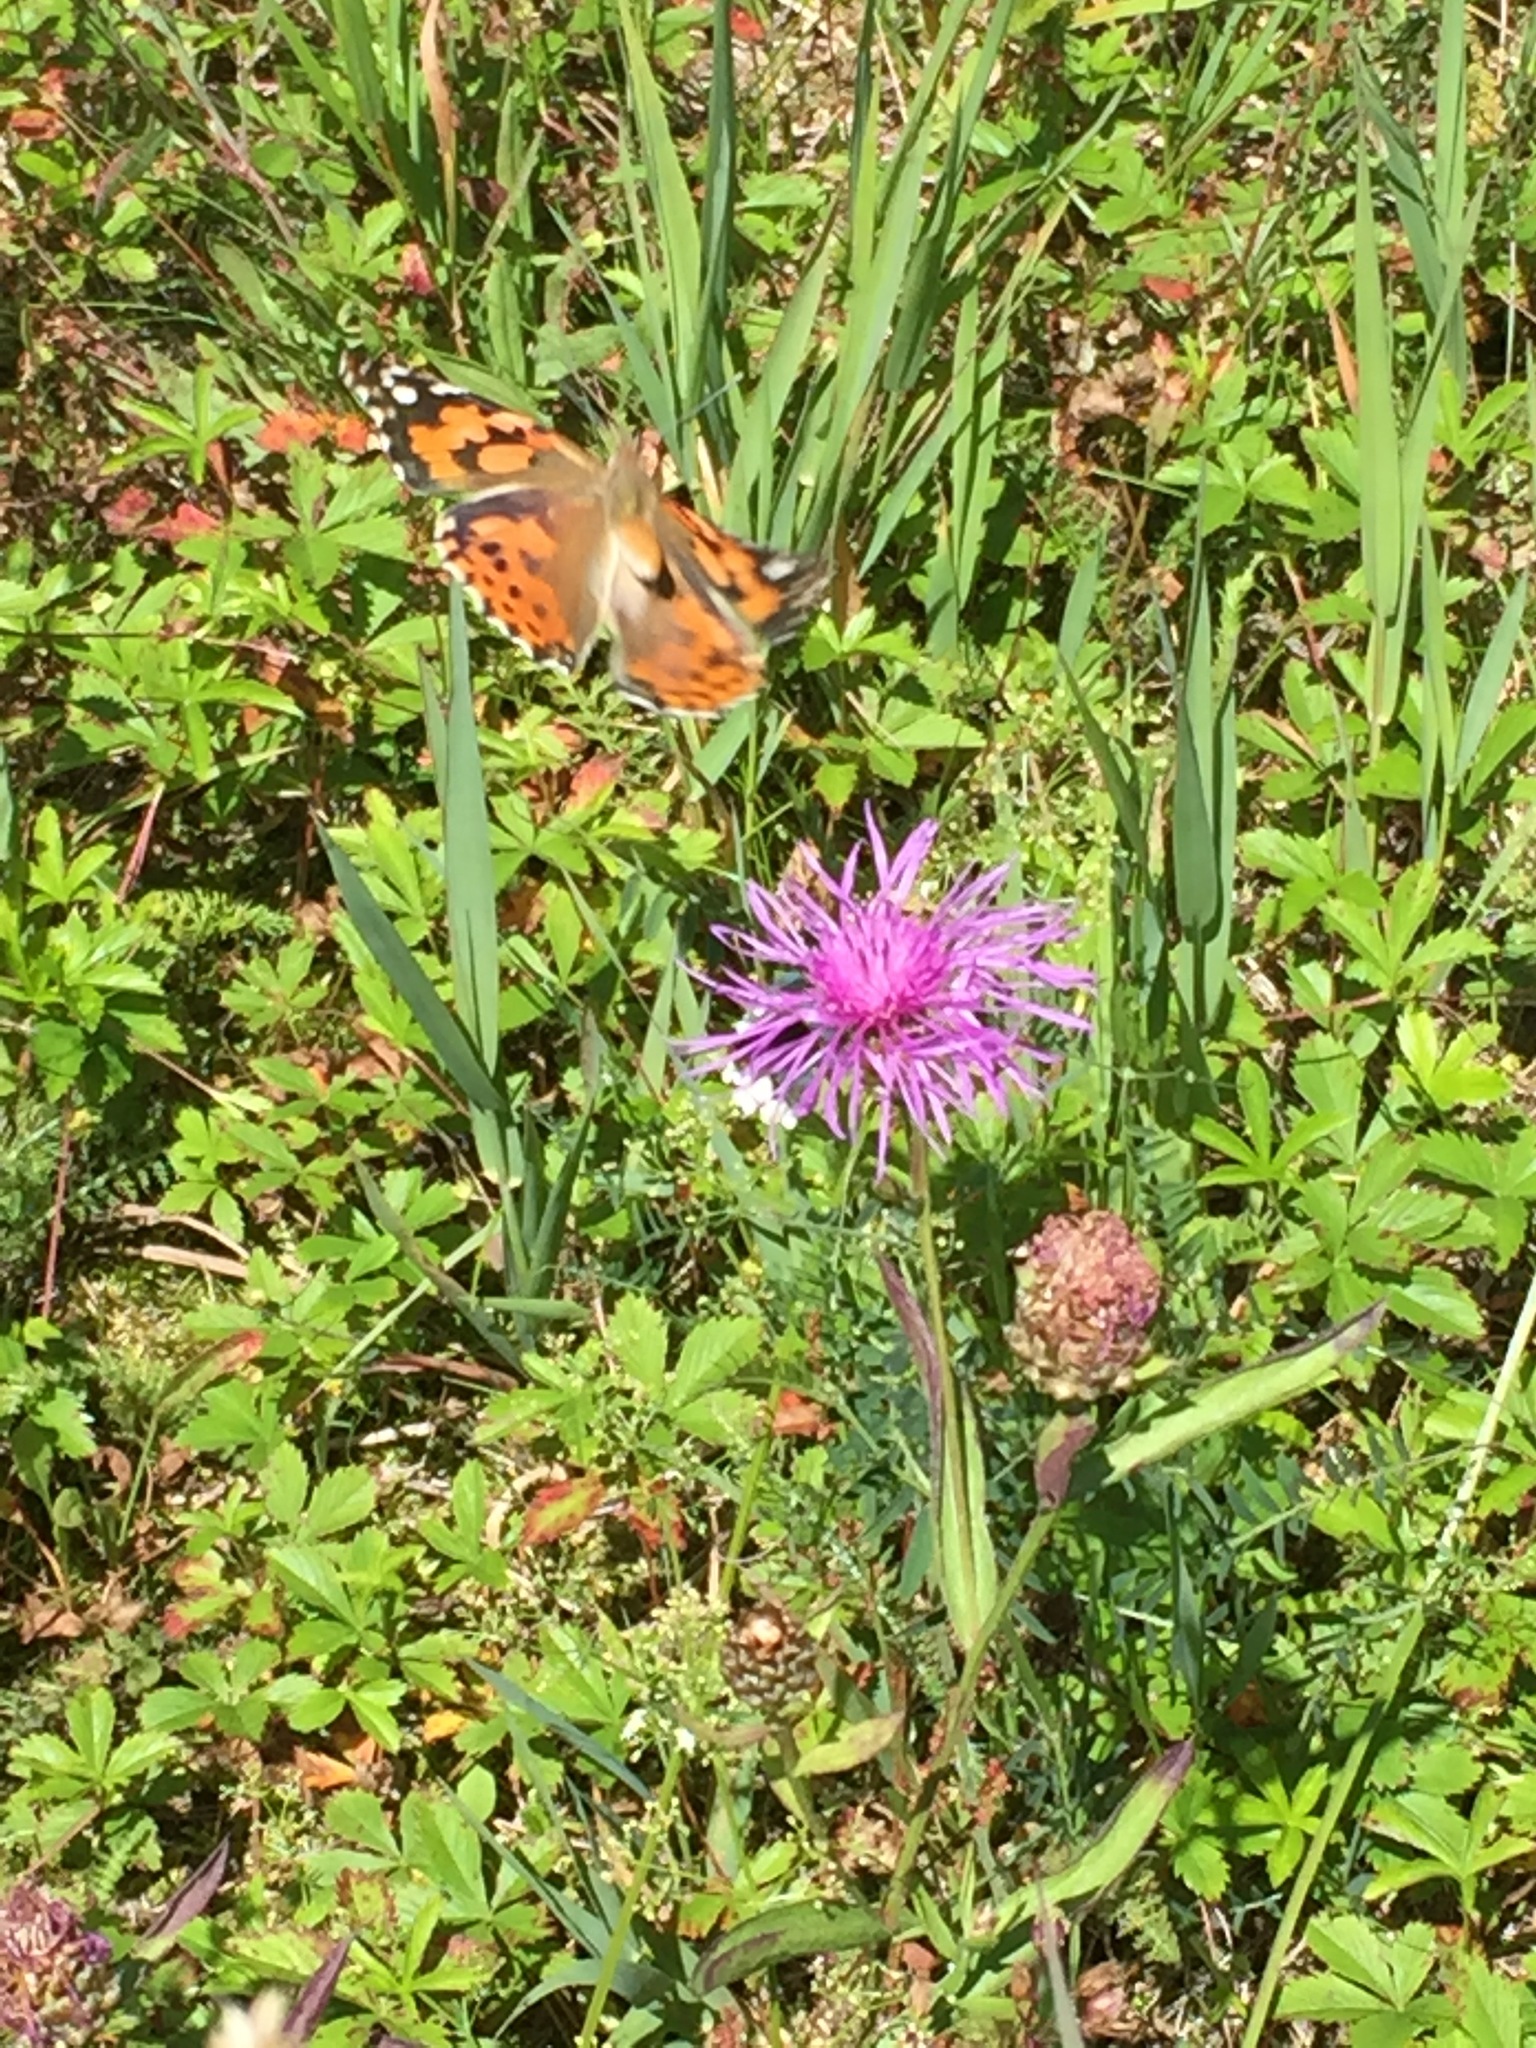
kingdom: Animalia
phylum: Arthropoda
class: Insecta
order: Lepidoptera
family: Nymphalidae
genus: Vanessa
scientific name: Vanessa cardui
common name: Painted lady
